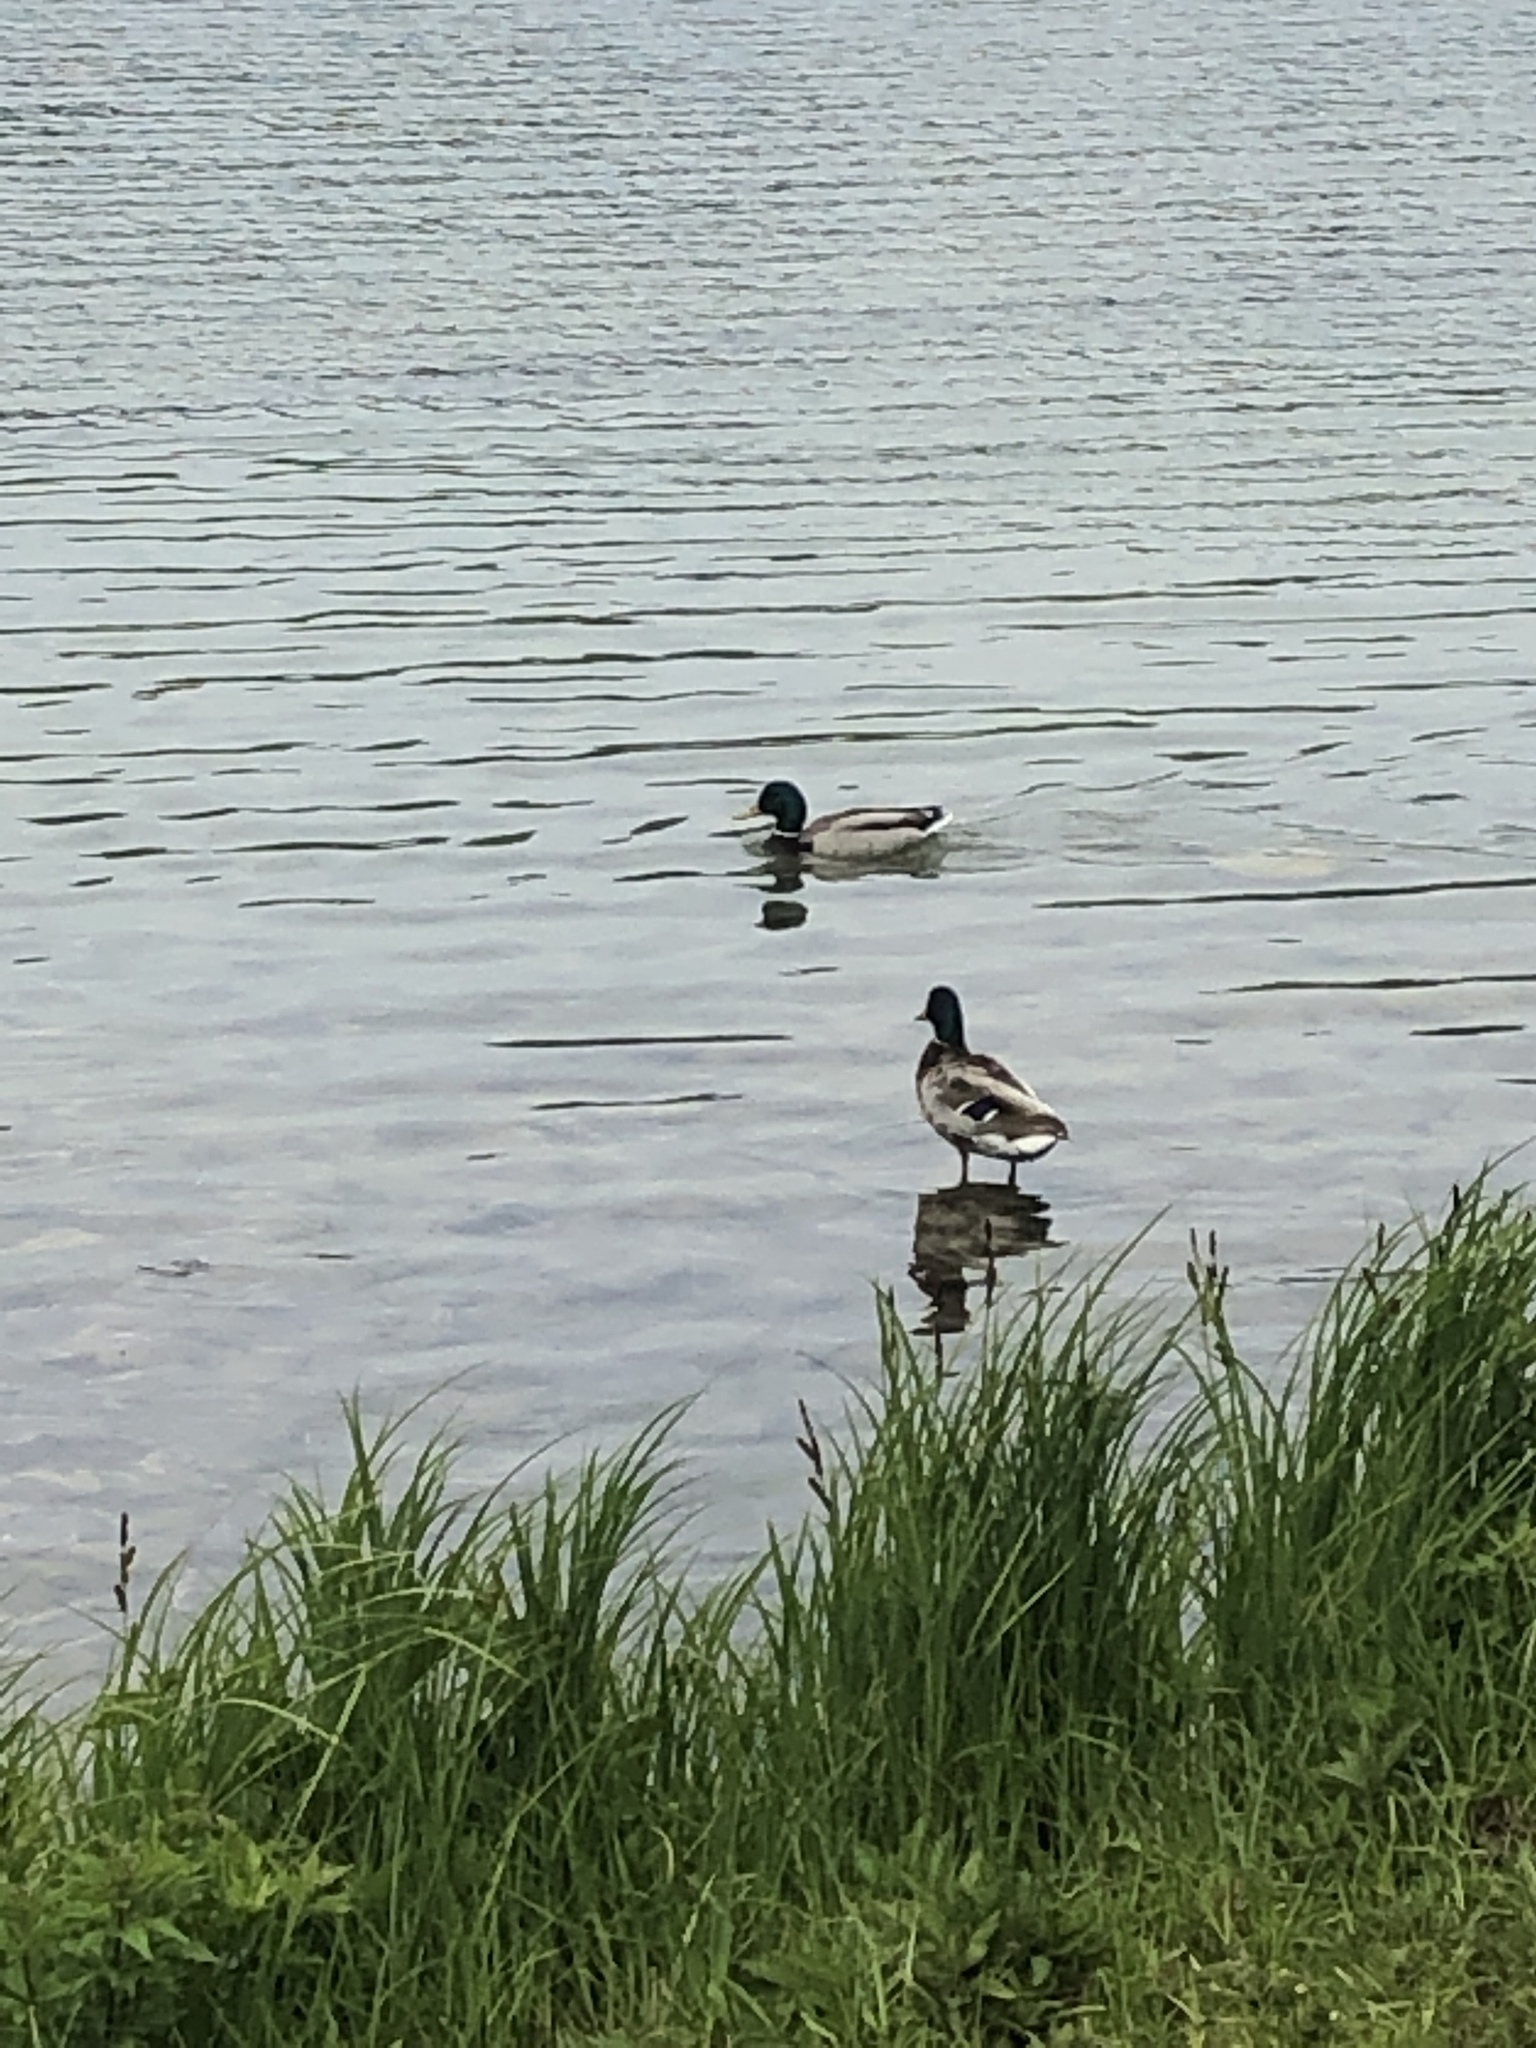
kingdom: Animalia
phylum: Chordata
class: Aves
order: Anseriformes
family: Anatidae
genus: Anas
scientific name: Anas platyrhynchos
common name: Mallard
